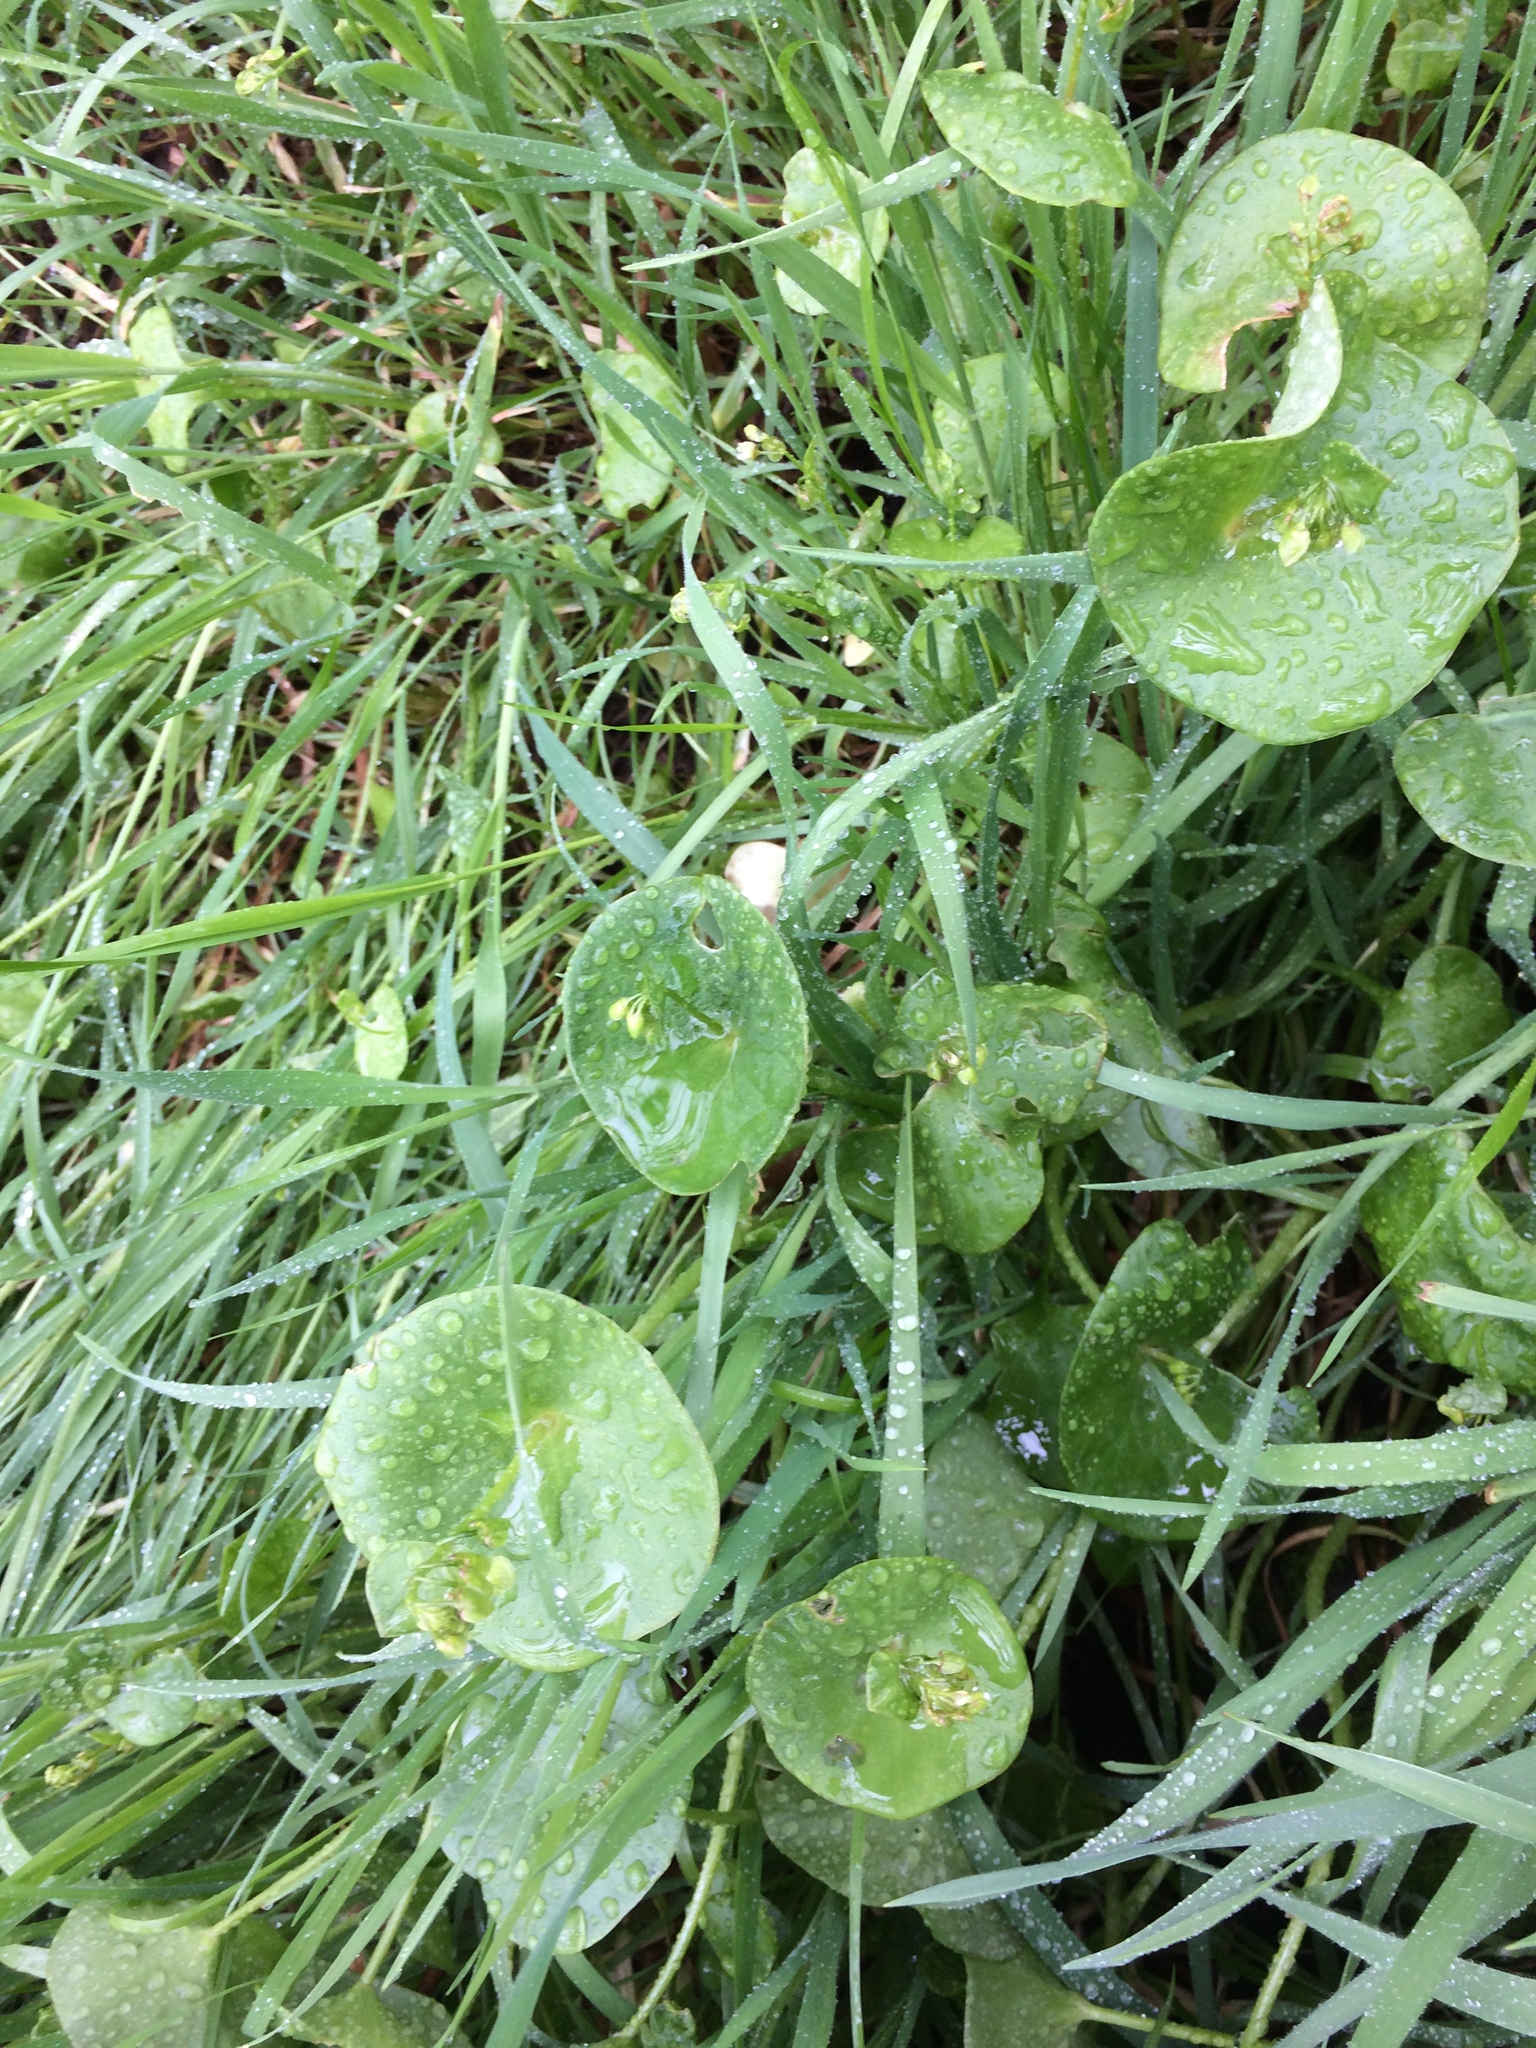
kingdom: Plantae
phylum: Tracheophyta
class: Magnoliopsida
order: Caryophyllales
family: Montiaceae
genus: Claytonia
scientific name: Claytonia perfoliata
